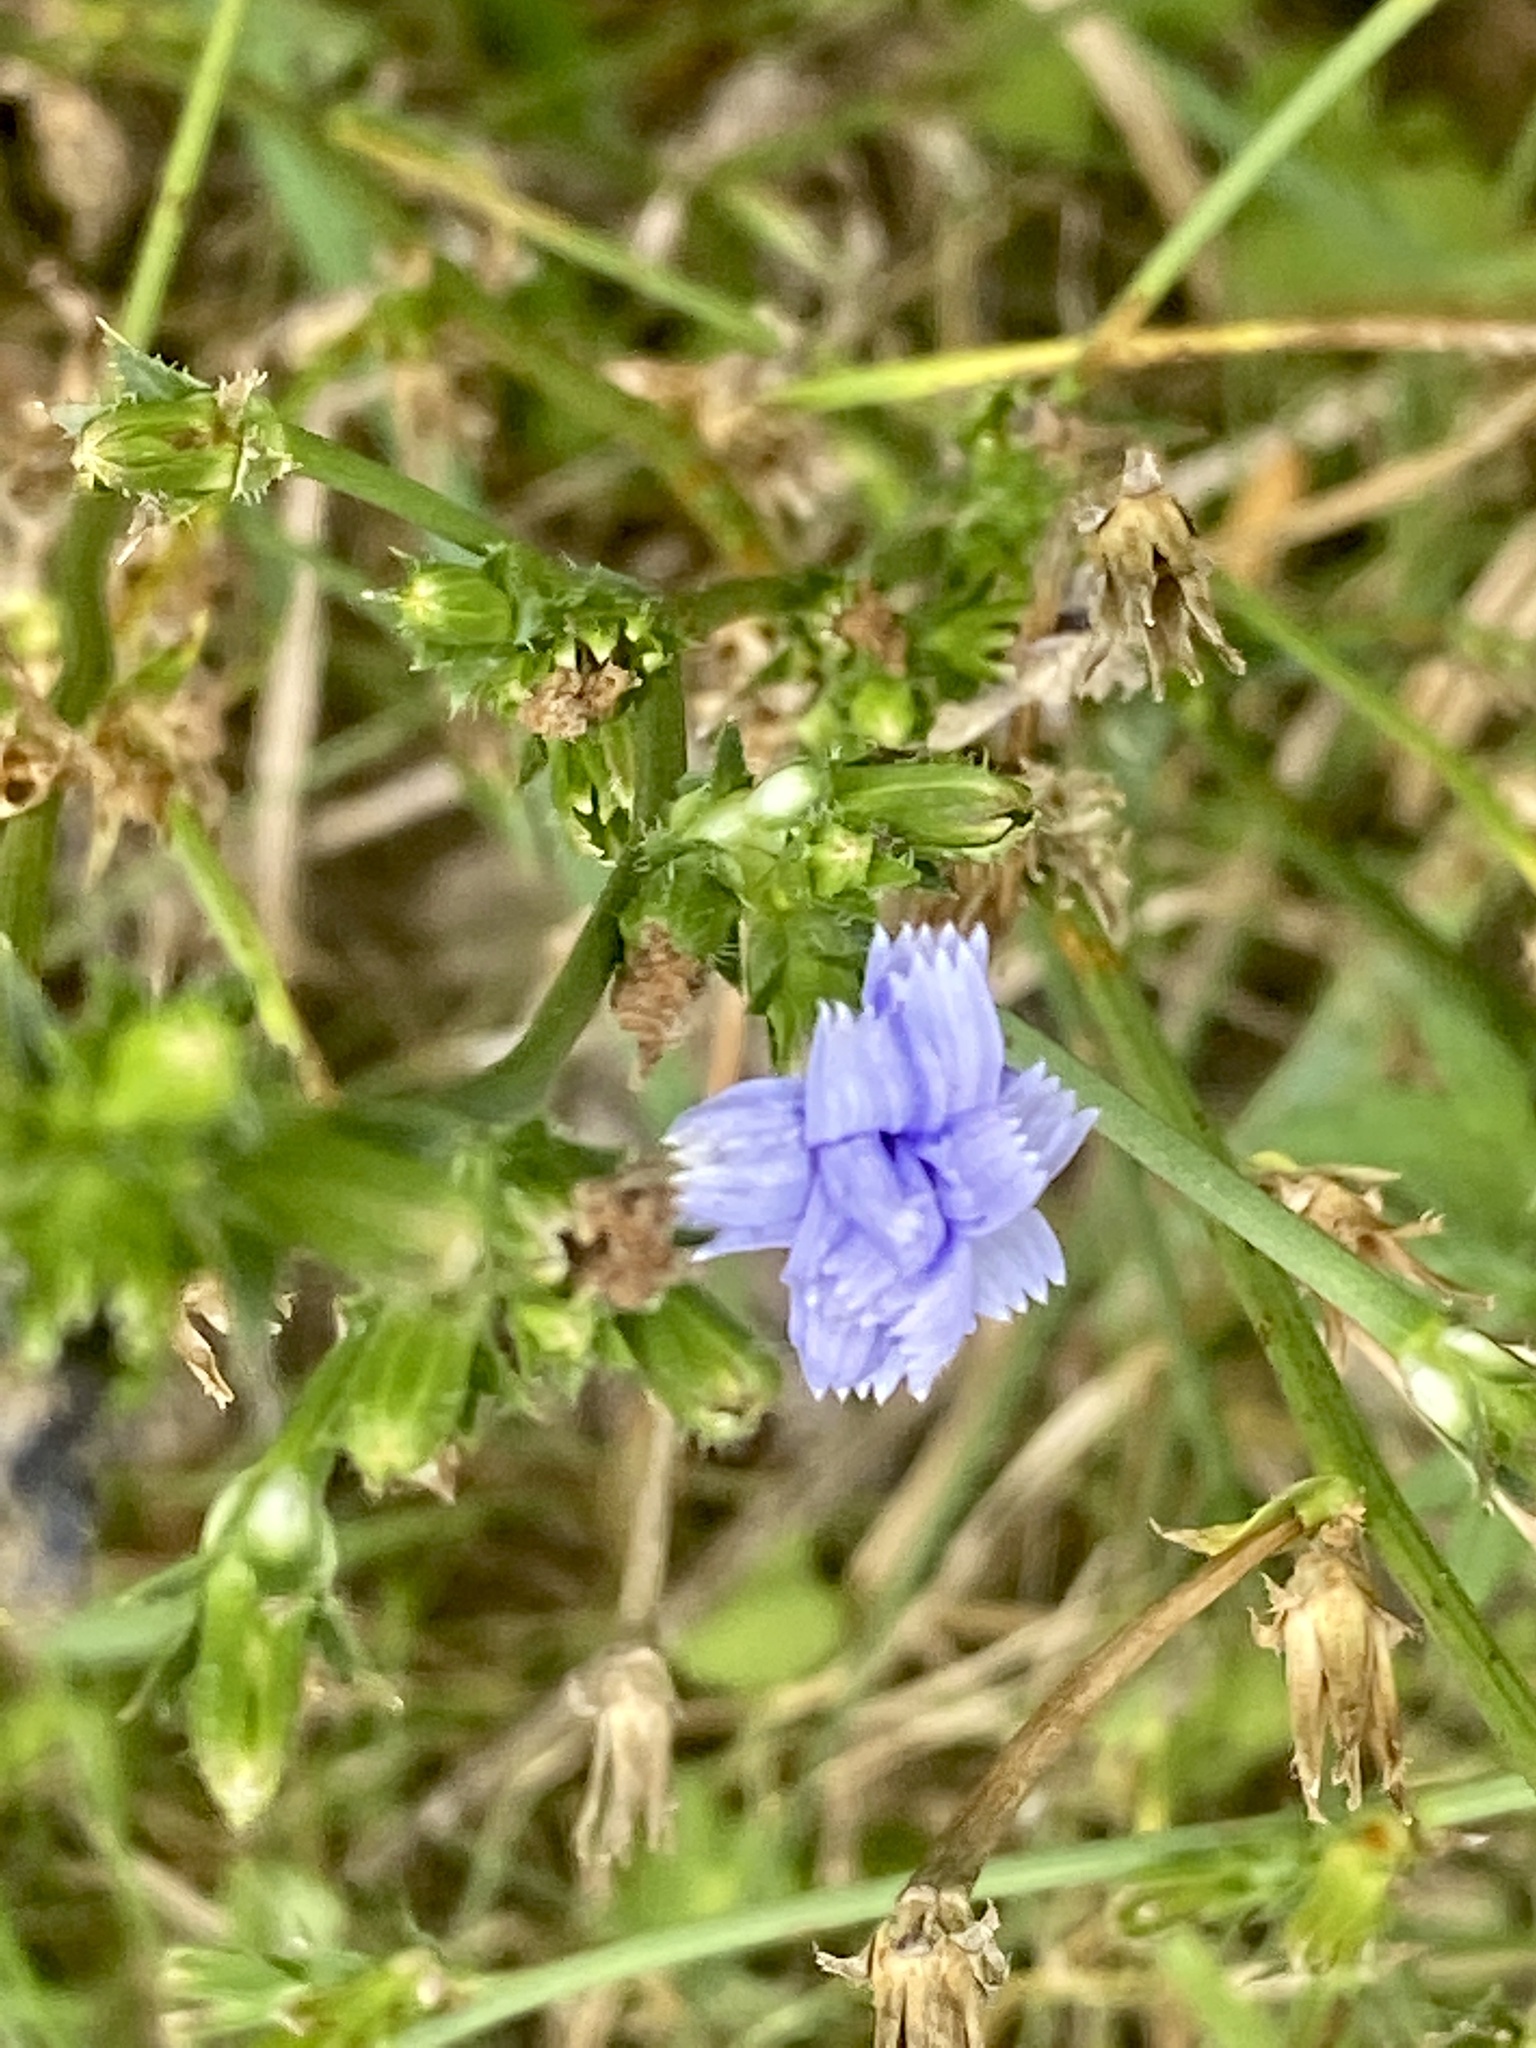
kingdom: Plantae
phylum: Tracheophyta
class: Magnoliopsida
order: Asterales
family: Asteraceae
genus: Cichorium
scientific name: Cichorium intybus
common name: Chicory
